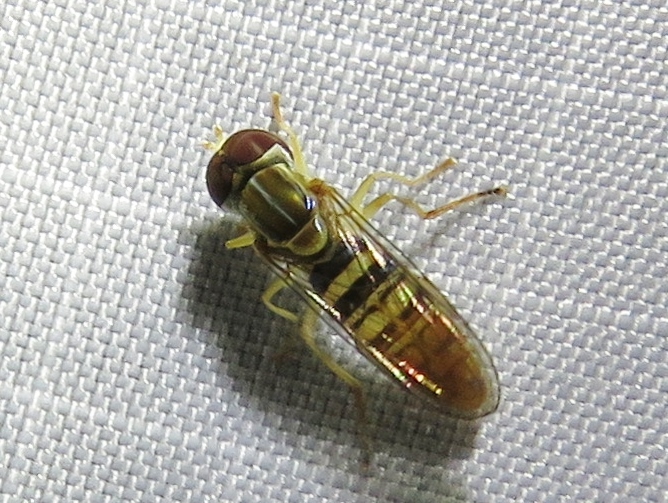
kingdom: Animalia
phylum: Arthropoda
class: Insecta
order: Diptera
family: Syrphidae
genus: Toxomerus
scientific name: Toxomerus politus
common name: Maize calligrapher
